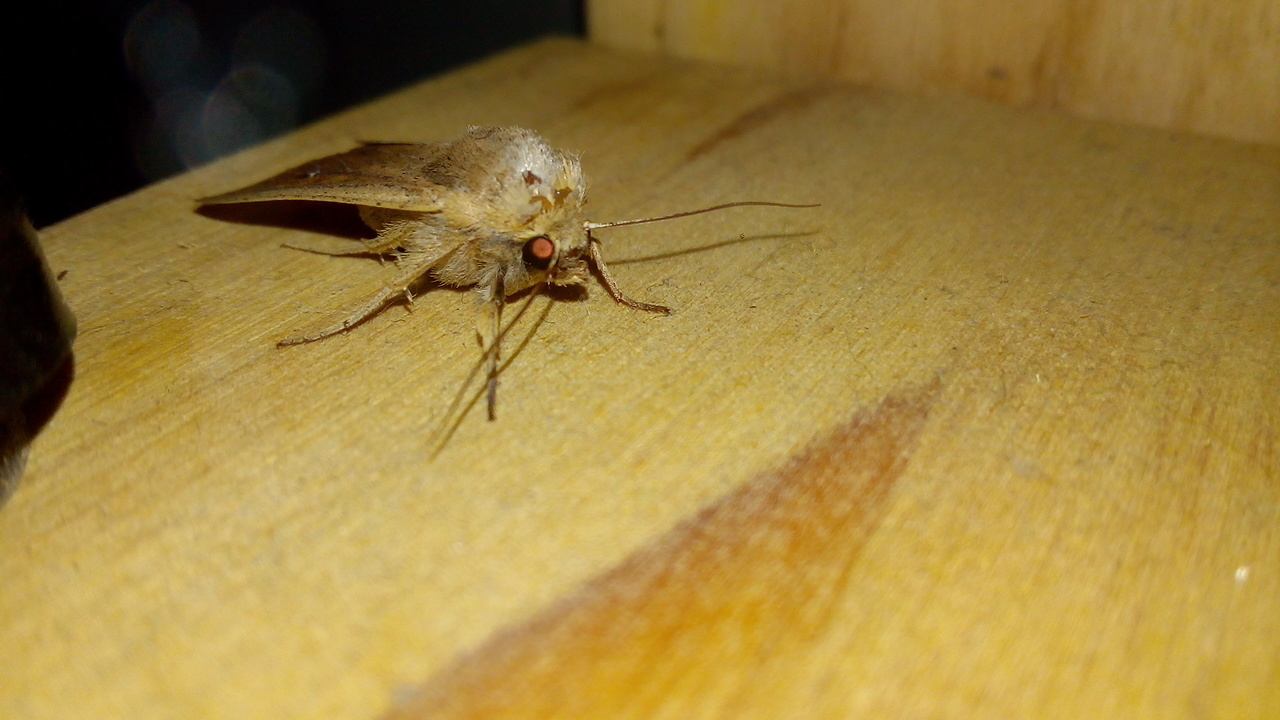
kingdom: Animalia
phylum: Arthropoda
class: Insecta
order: Lepidoptera
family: Noctuidae
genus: Mythimna
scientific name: Mythimna unipuncta
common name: White-speck
